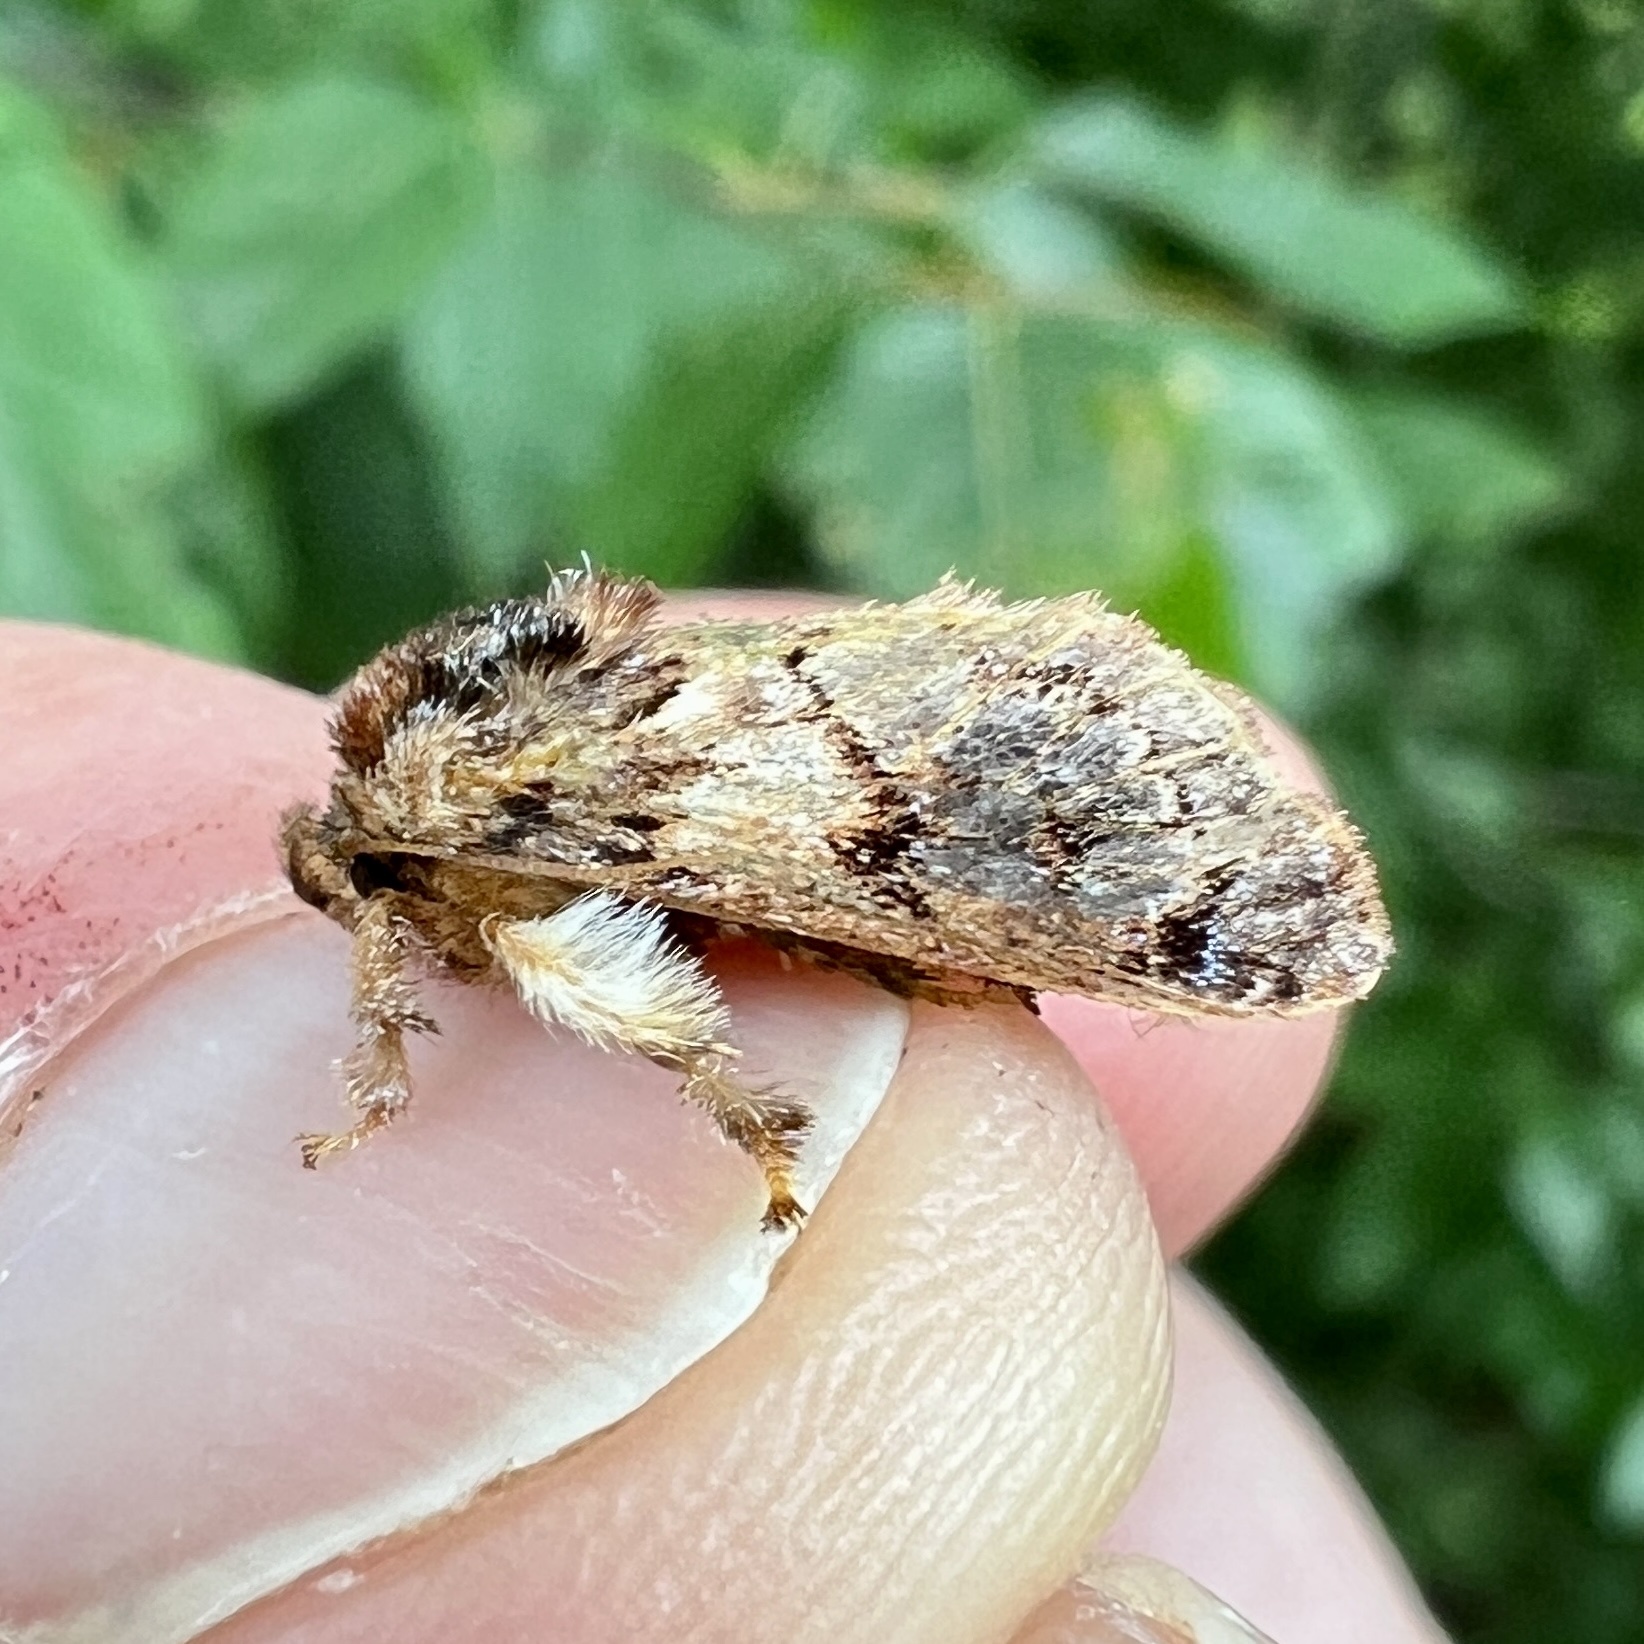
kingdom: Animalia
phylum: Arthropoda
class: Insecta
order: Lepidoptera
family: Limacodidae
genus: Phobetron
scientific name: Phobetron pithecium
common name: Hag moth
